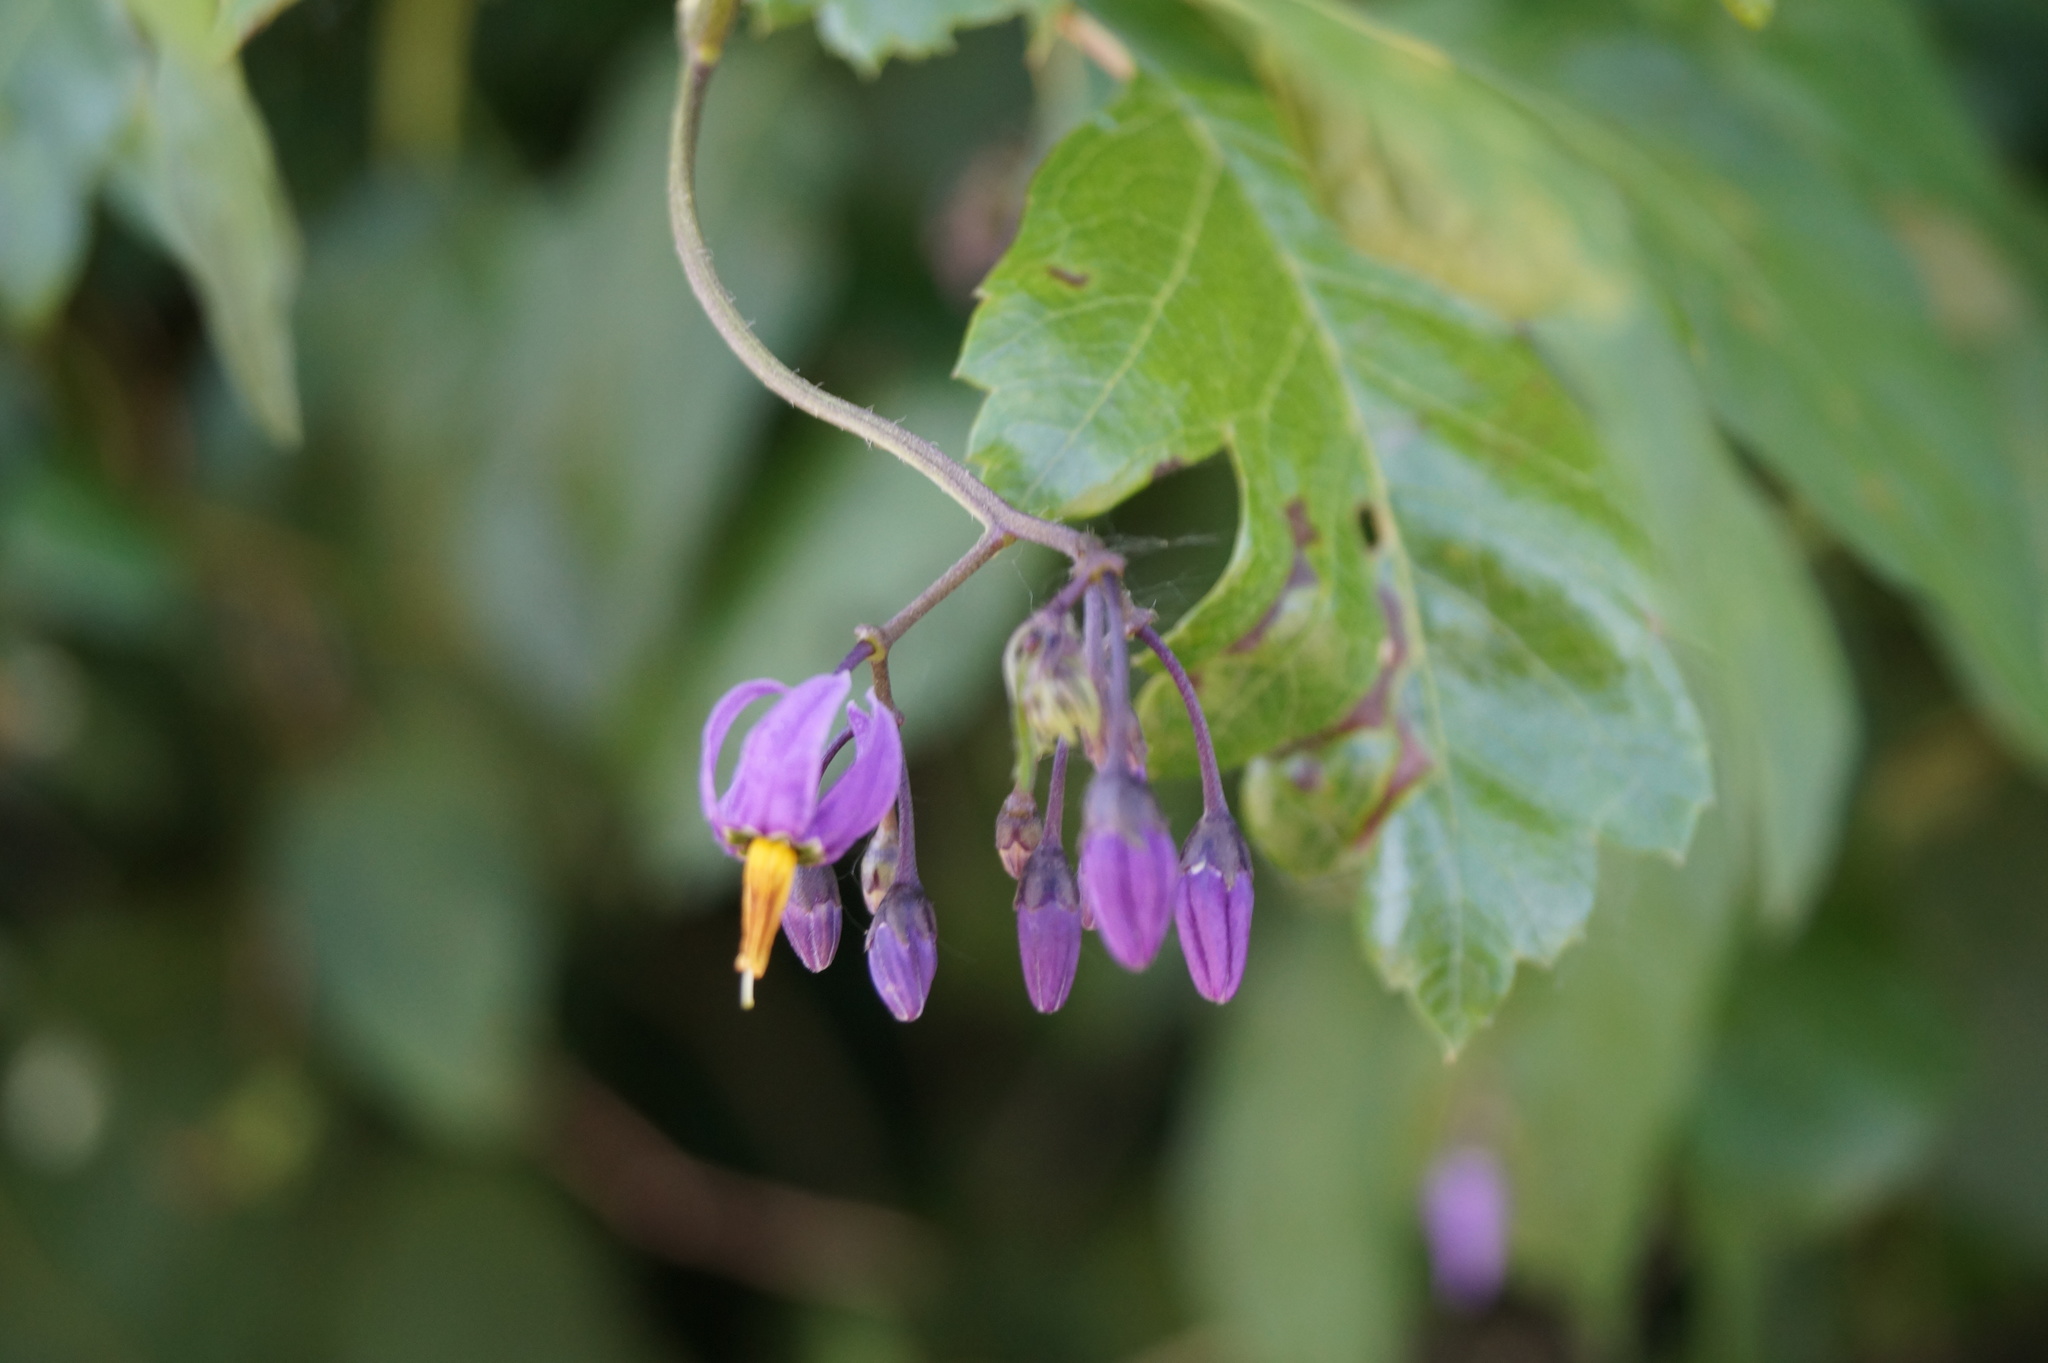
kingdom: Plantae
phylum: Tracheophyta
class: Magnoliopsida
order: Solanales
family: Solanaceae
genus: Solanum
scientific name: Solanum dulcamara
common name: Climbing nightshade
